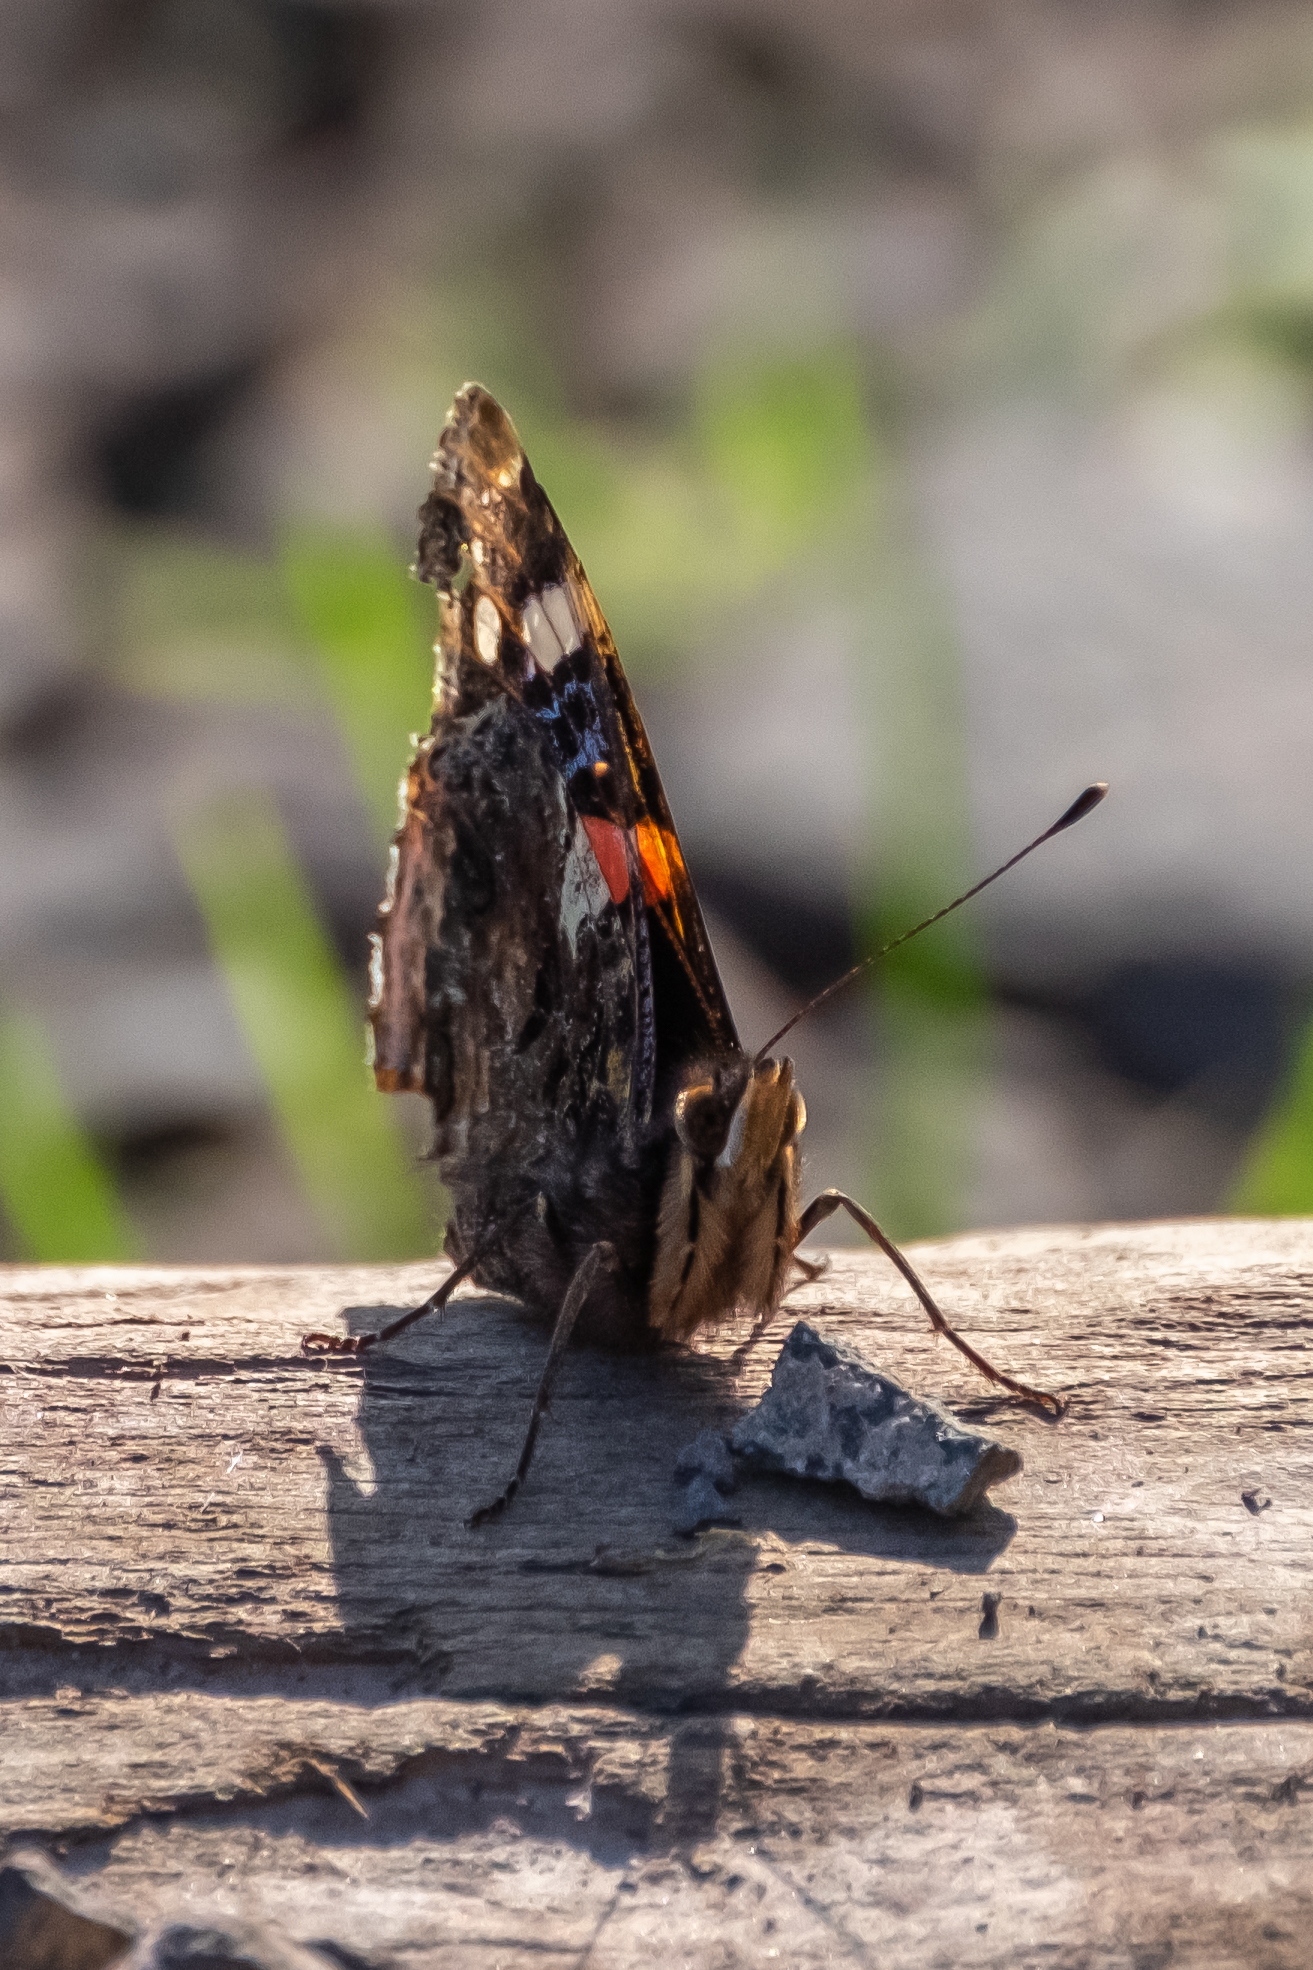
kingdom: Animalia
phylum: Arthropoda
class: Insecta
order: Lepidoptera
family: Nymphalidae
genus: Vanessa
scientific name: Vanessa atalanta
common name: Red admiral
